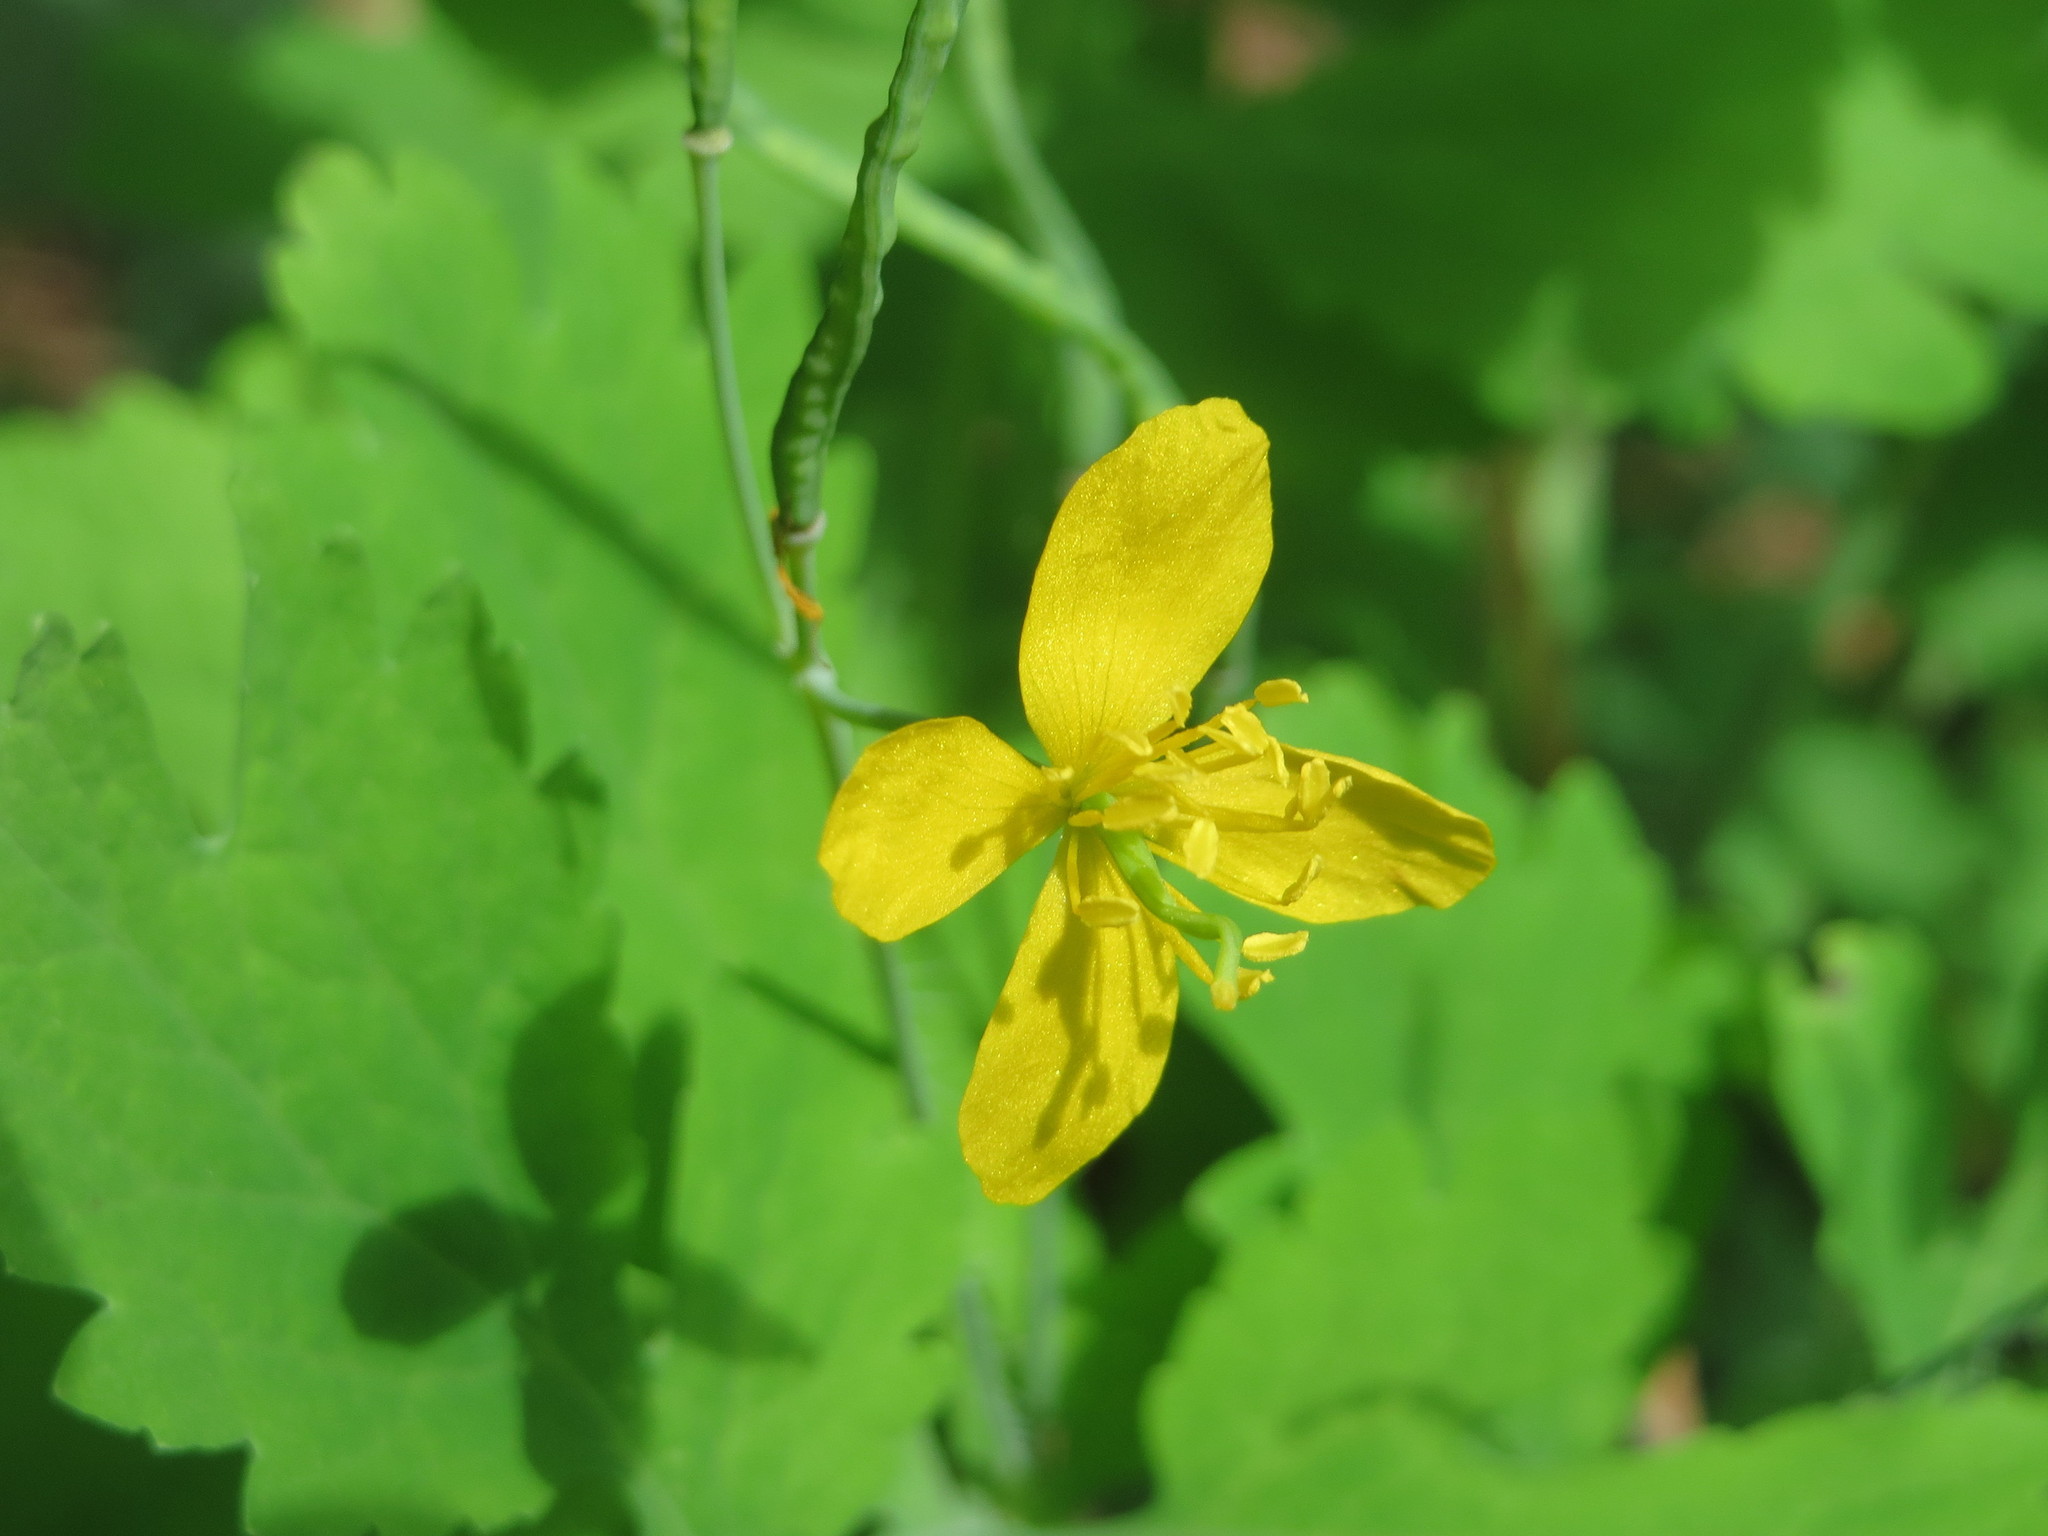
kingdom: Plantae
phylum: Tracheophyta
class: Magnoliopsida
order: Ranunculales
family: Papaveraceae
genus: Chelidonium
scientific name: Chelidonium majus
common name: Greater celandine
